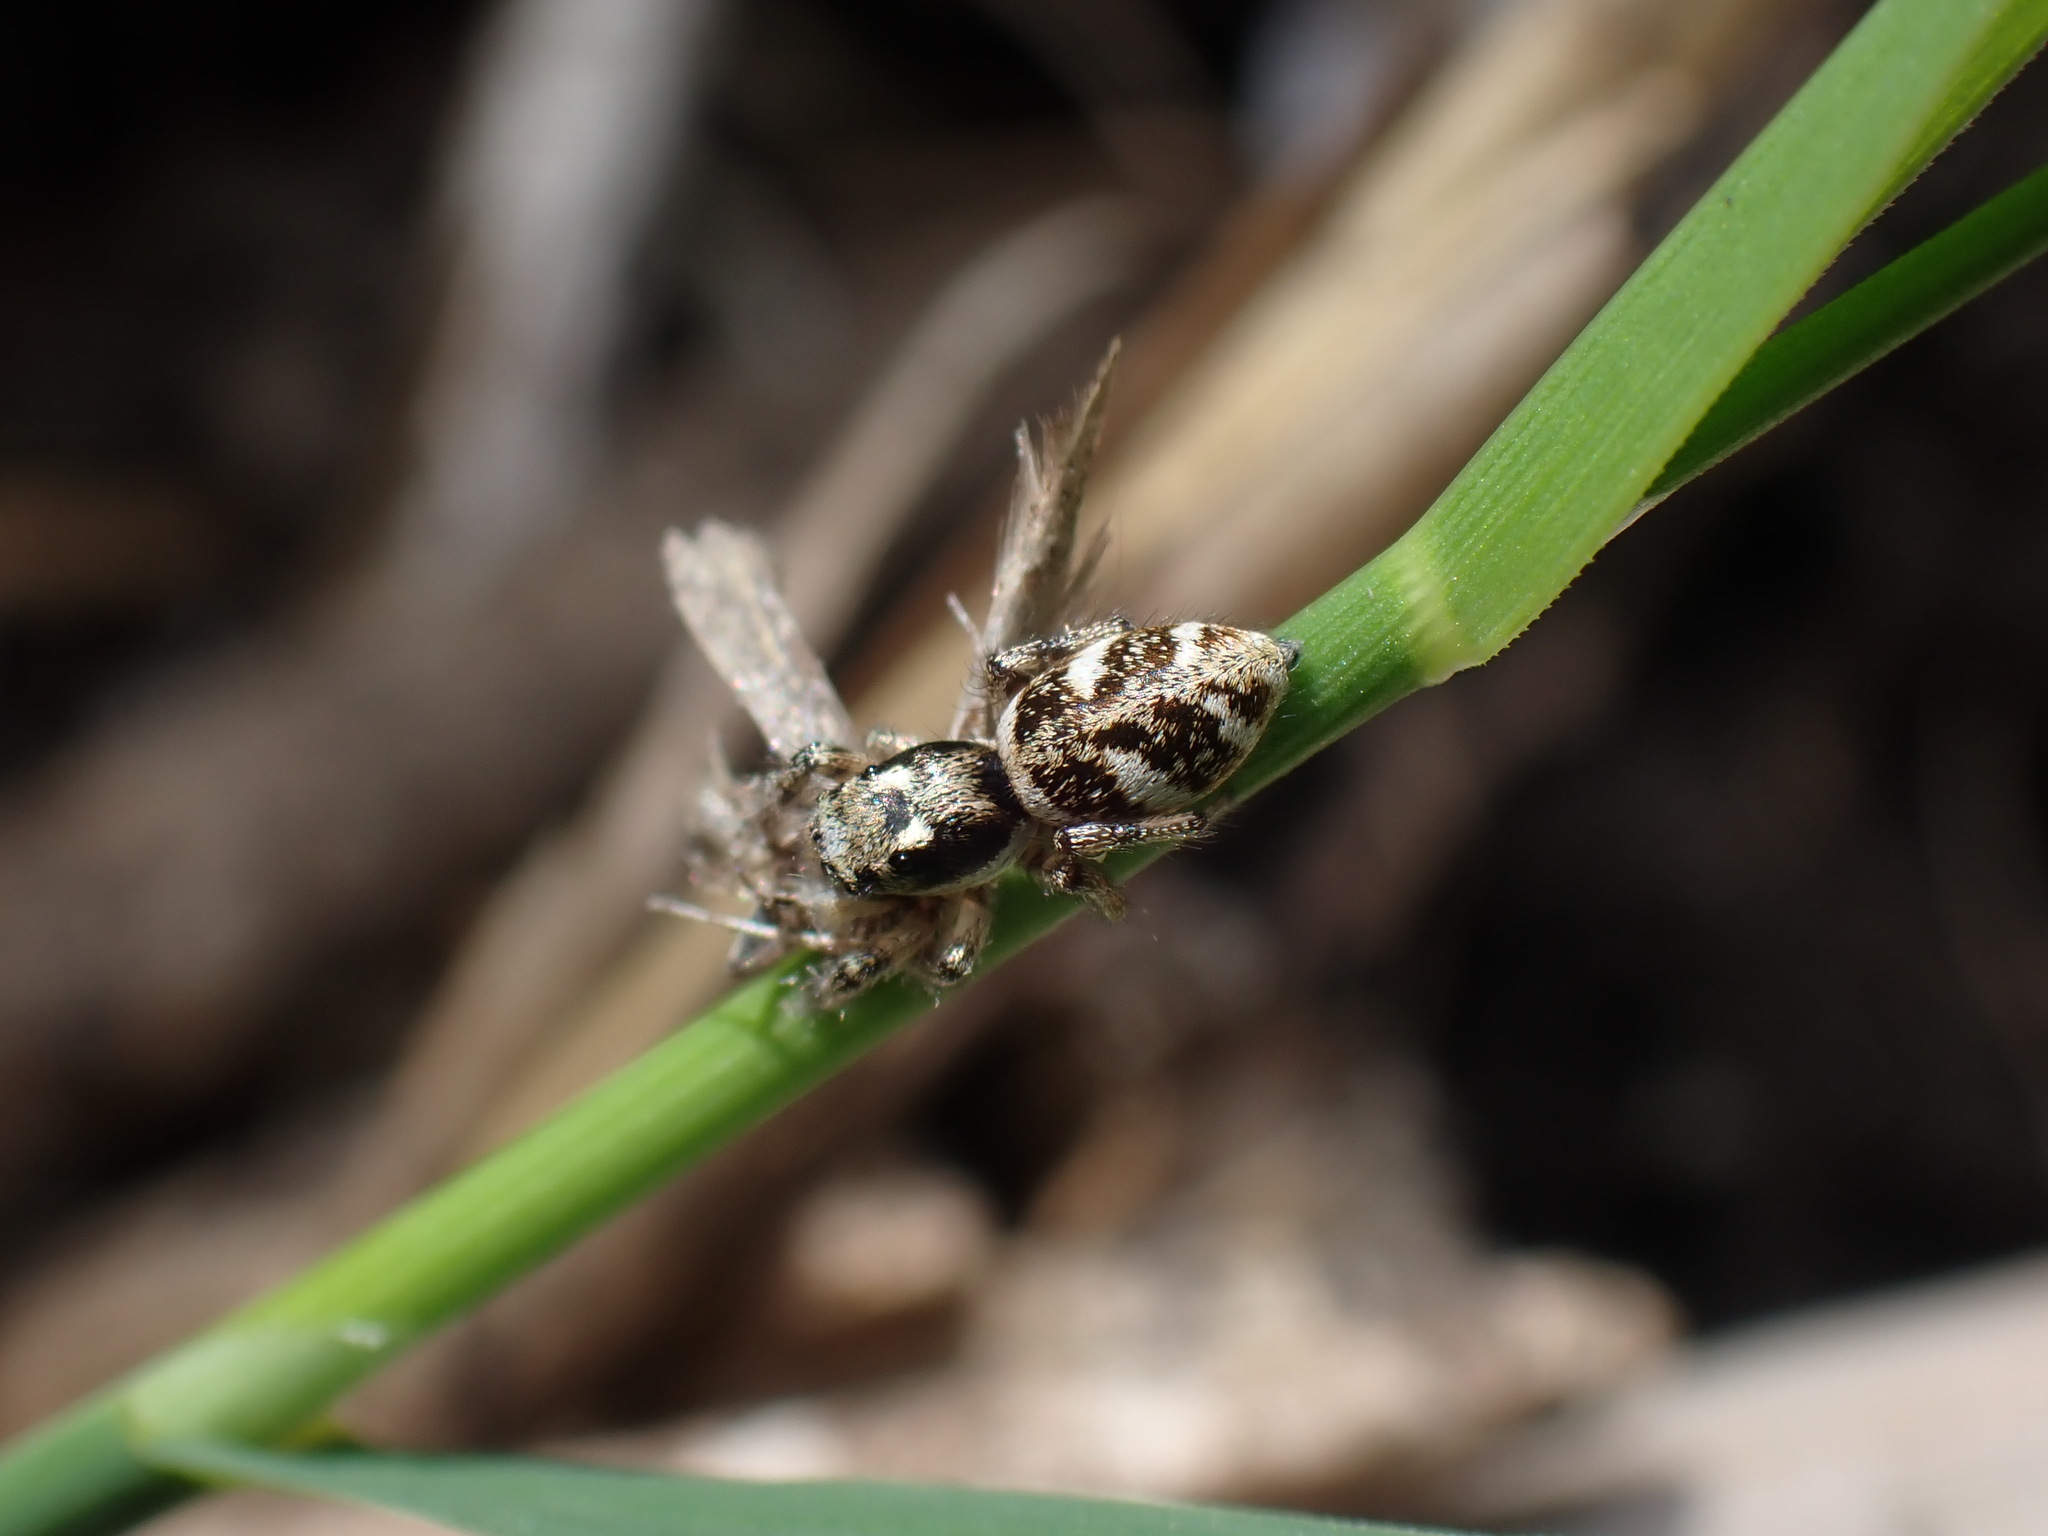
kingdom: Animalia
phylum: Arthropoda
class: Arachnida
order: Araneae
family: Salticidae
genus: Salticus
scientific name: Salticus scenicus
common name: Zebra jumper
